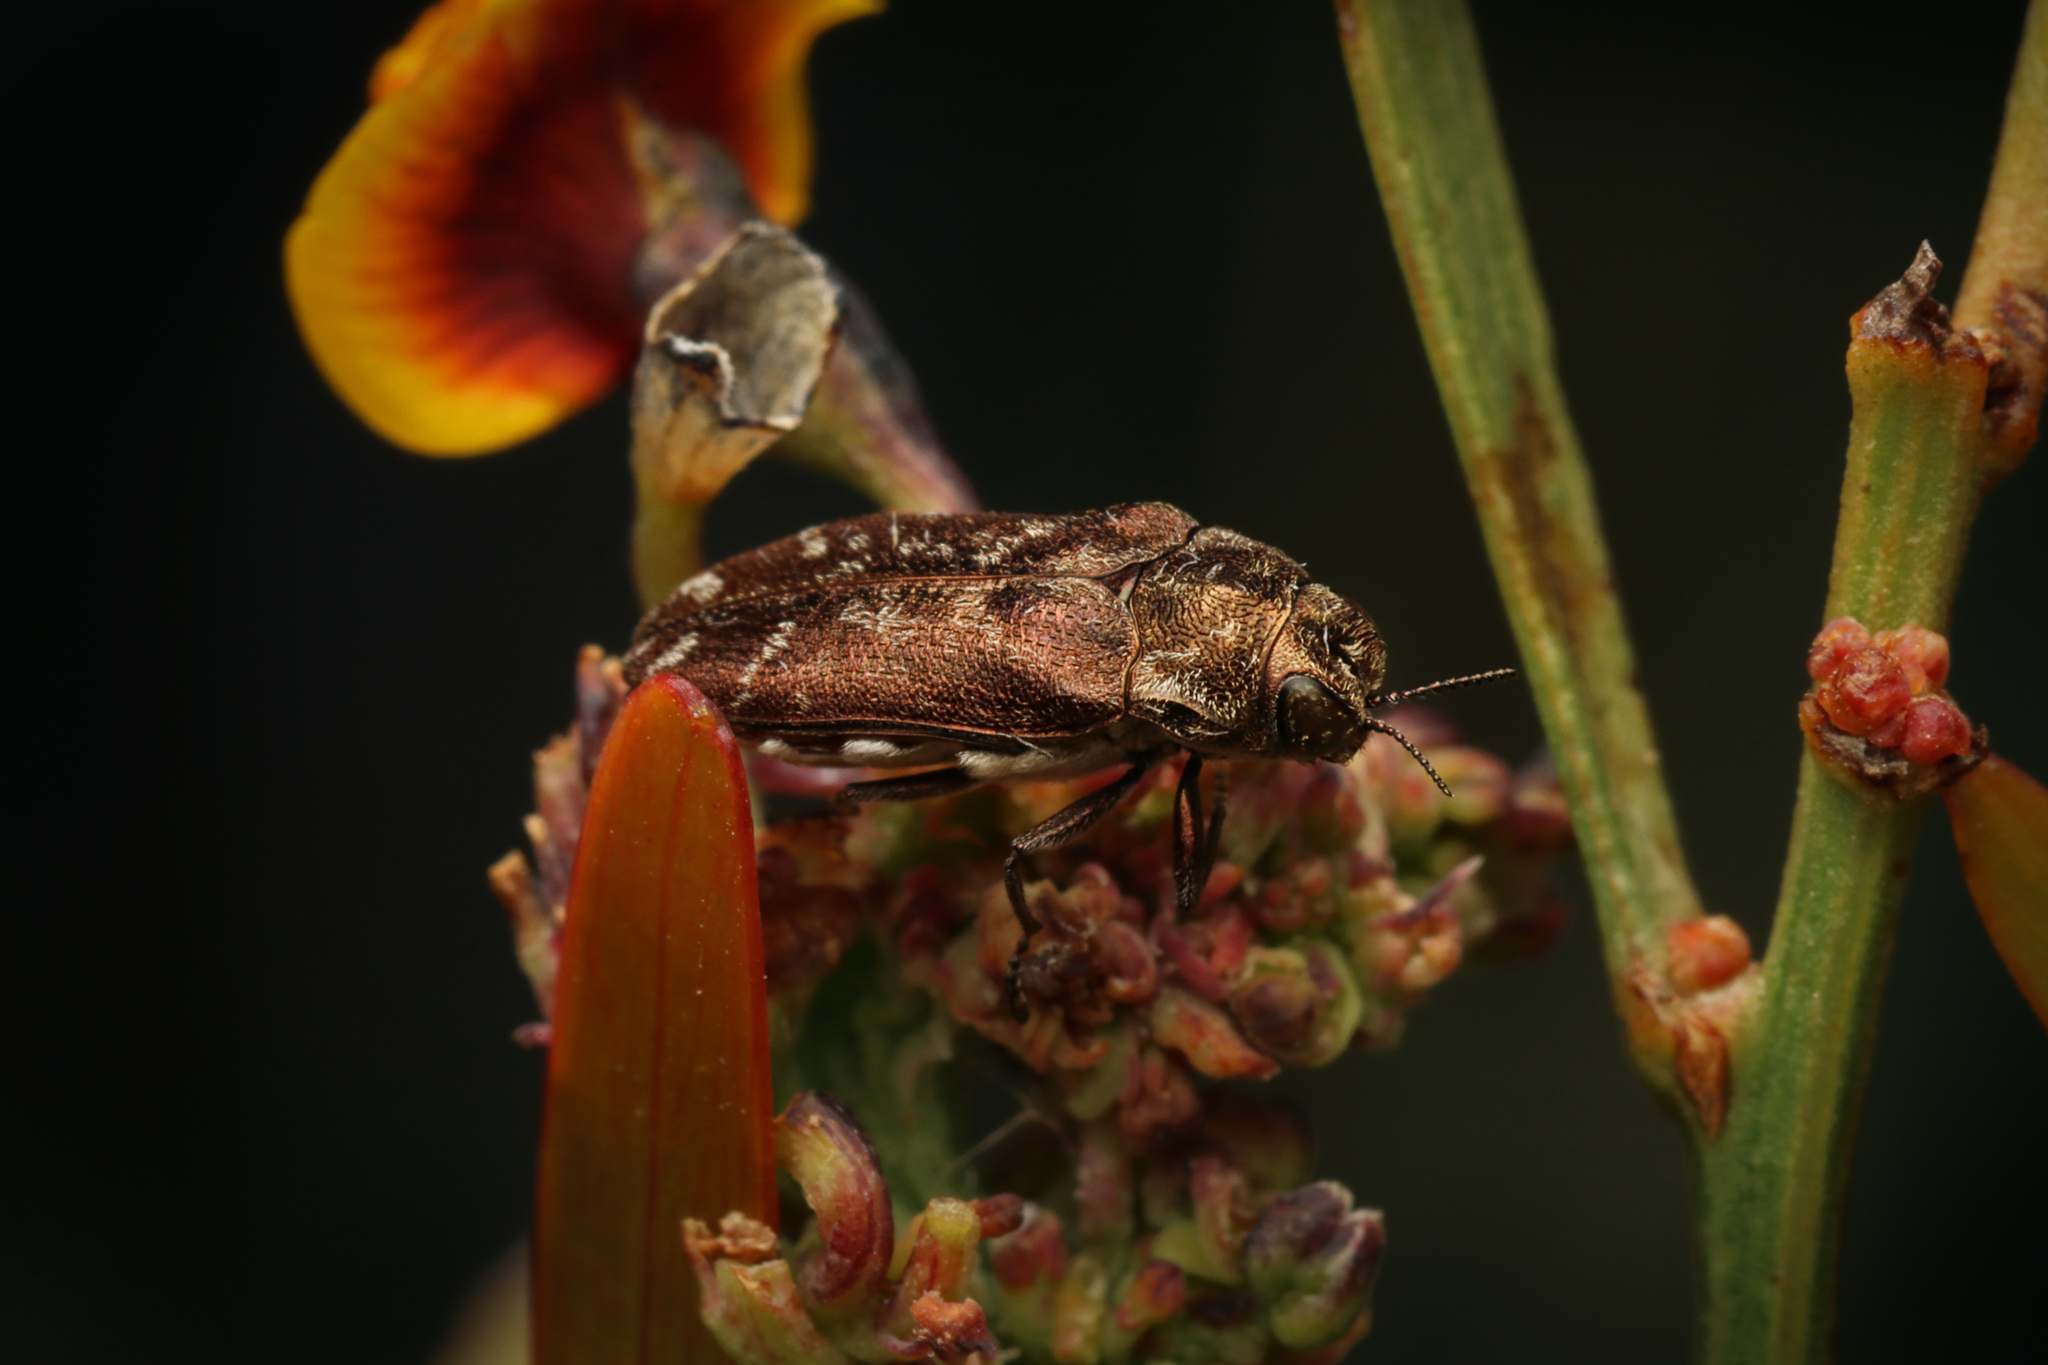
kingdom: Animalia
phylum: Arthropoda
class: Insecta
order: Coleoptera
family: Buprestidae
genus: Ethonion
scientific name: Ethonion reichei
